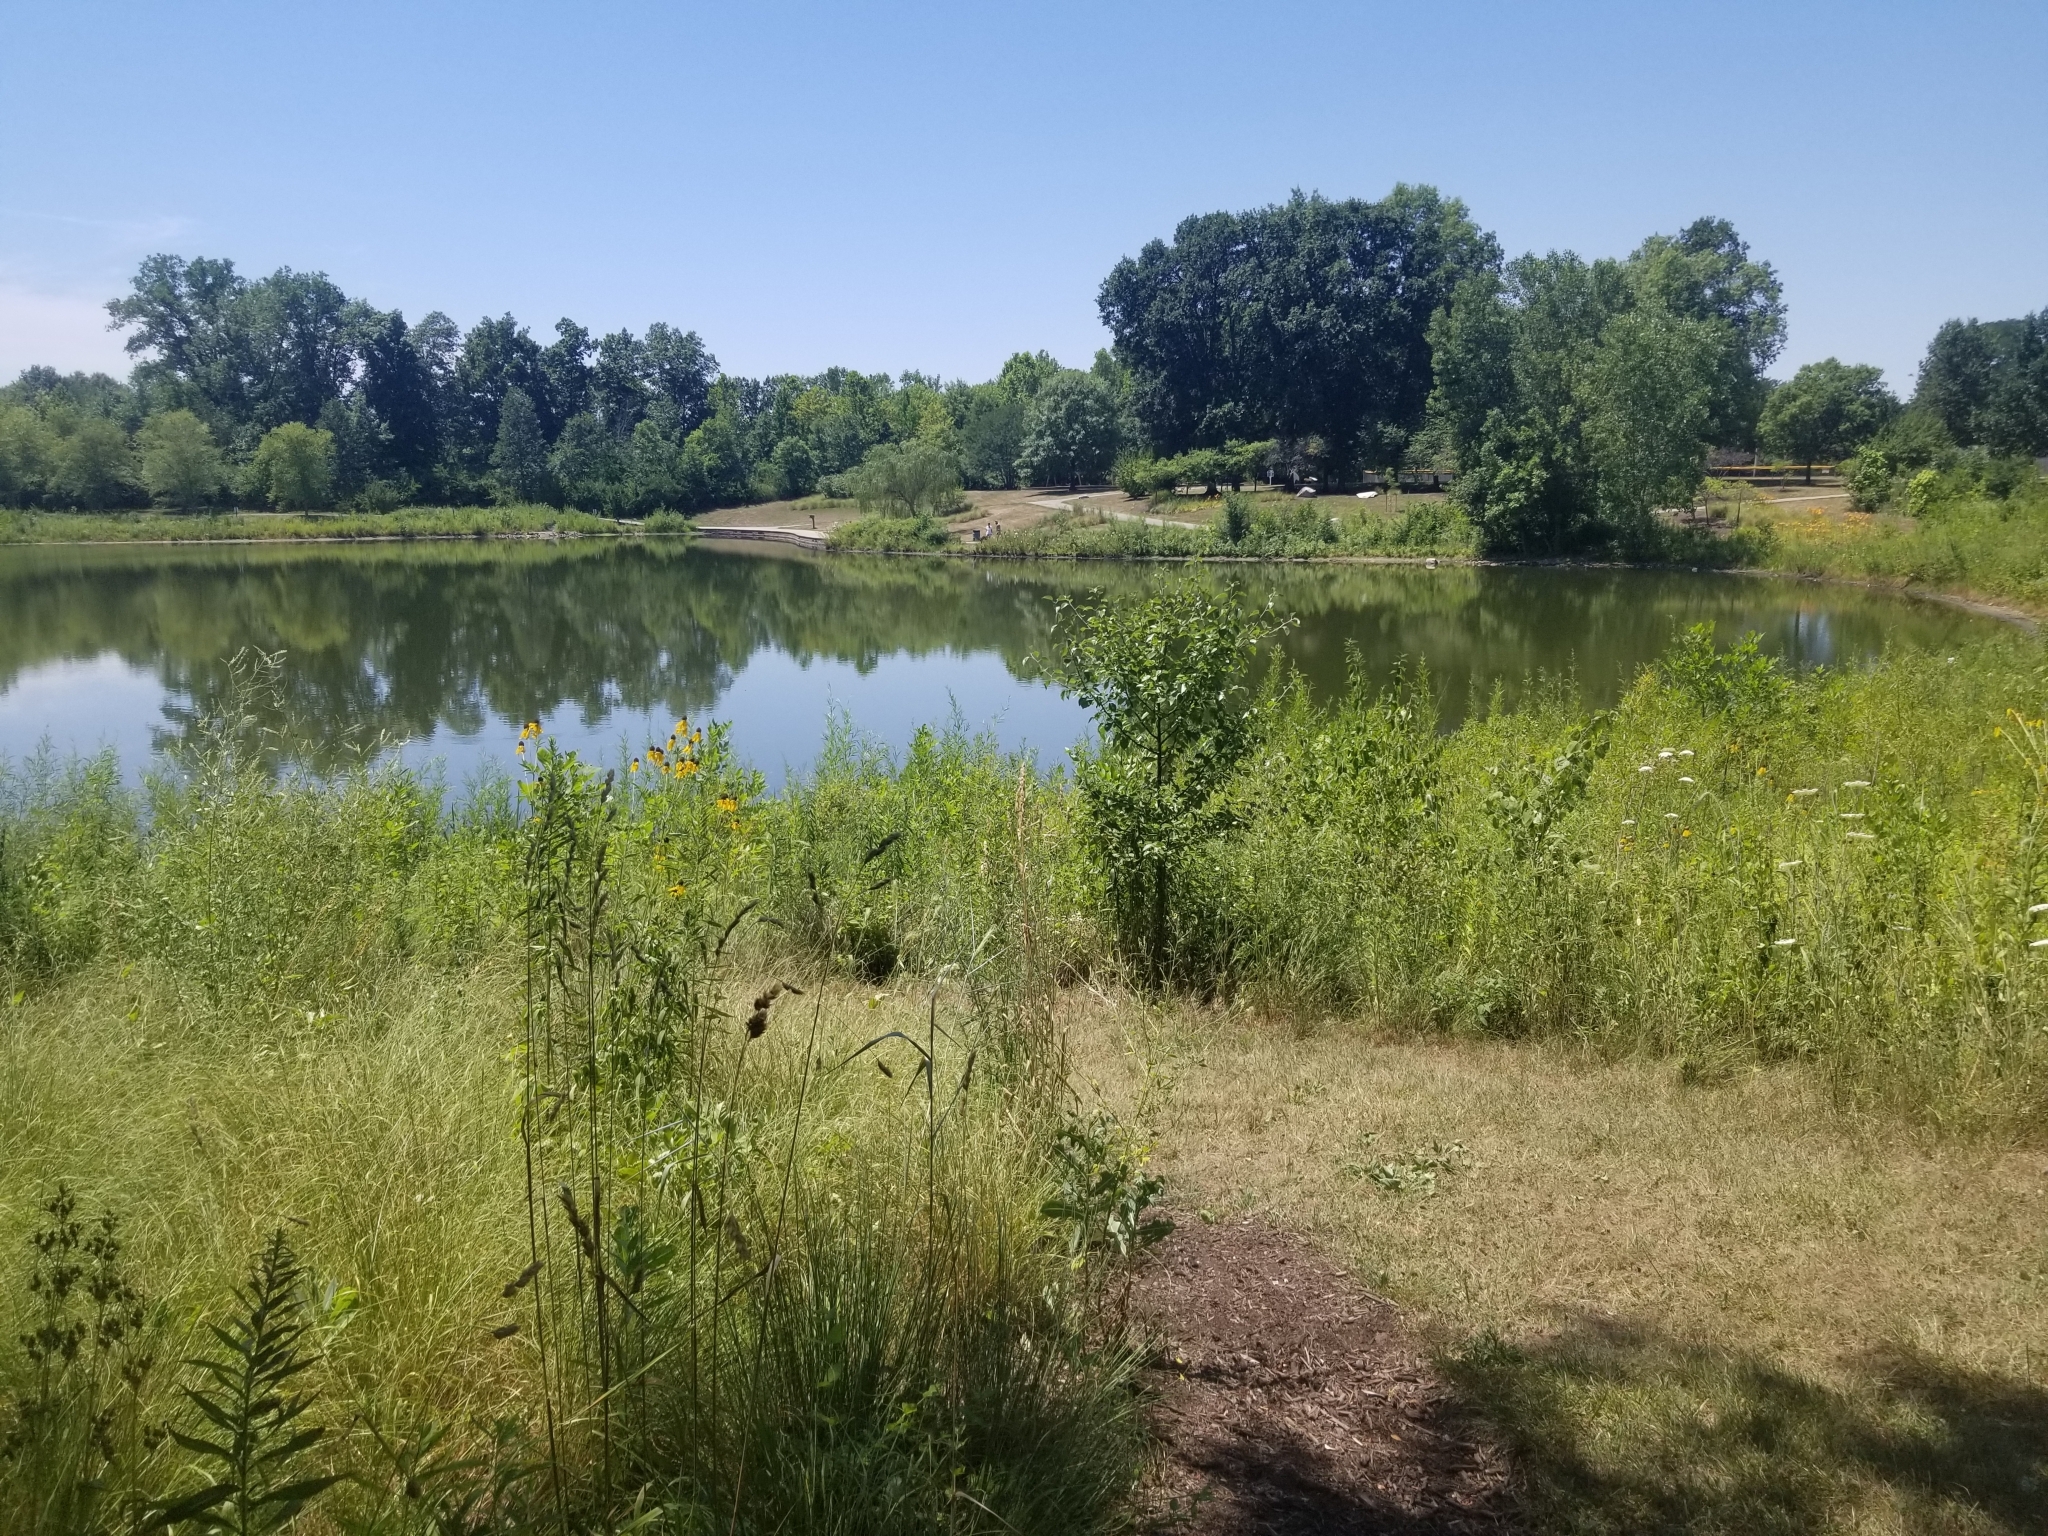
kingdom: Plantae
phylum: Tracheophyta
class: Magnoliopsida
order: Asterales
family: Asteraceae
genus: Ratibida
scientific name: Ratibida pinnata
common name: Drooping prairie-coneflower
